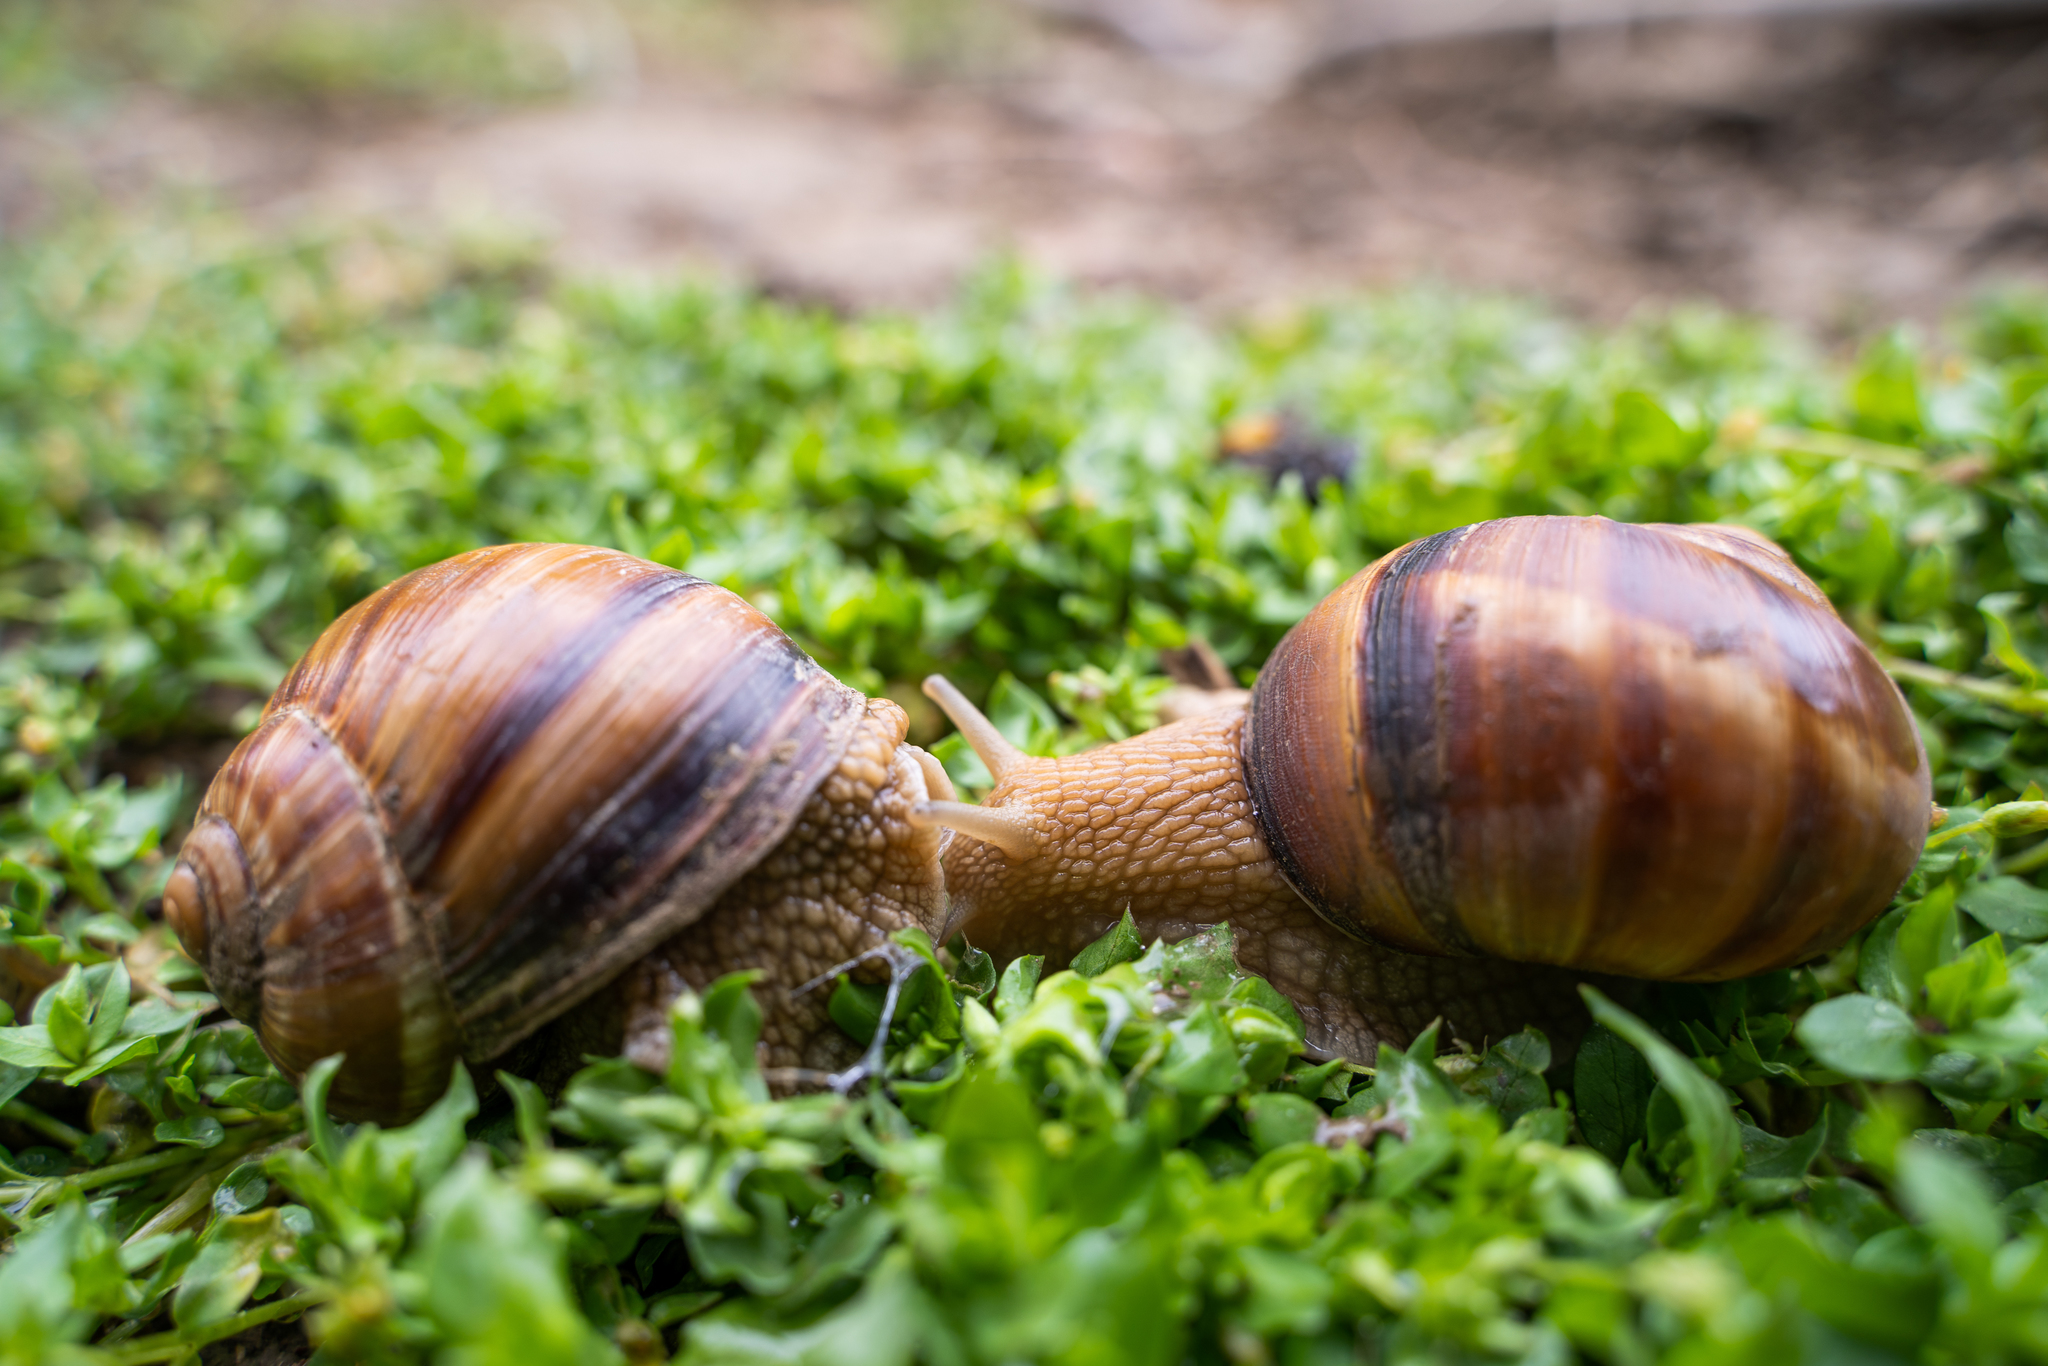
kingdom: Animalia
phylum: Mollusca
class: Gastropoda
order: Stylommatophora
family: Helicidae
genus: Helix
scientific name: Helix lucorum
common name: Turkish snail
